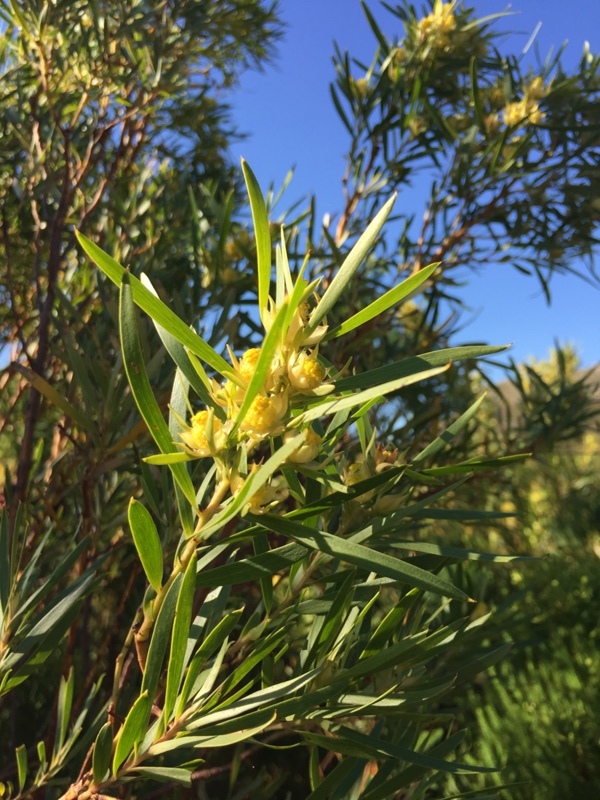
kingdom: Plantae
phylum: Tracheophyta
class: Magnoliopsida
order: Proteales
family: Proteaceae
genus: Leucadendron
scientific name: Leucadendron salicifolium
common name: Common stream conebush
